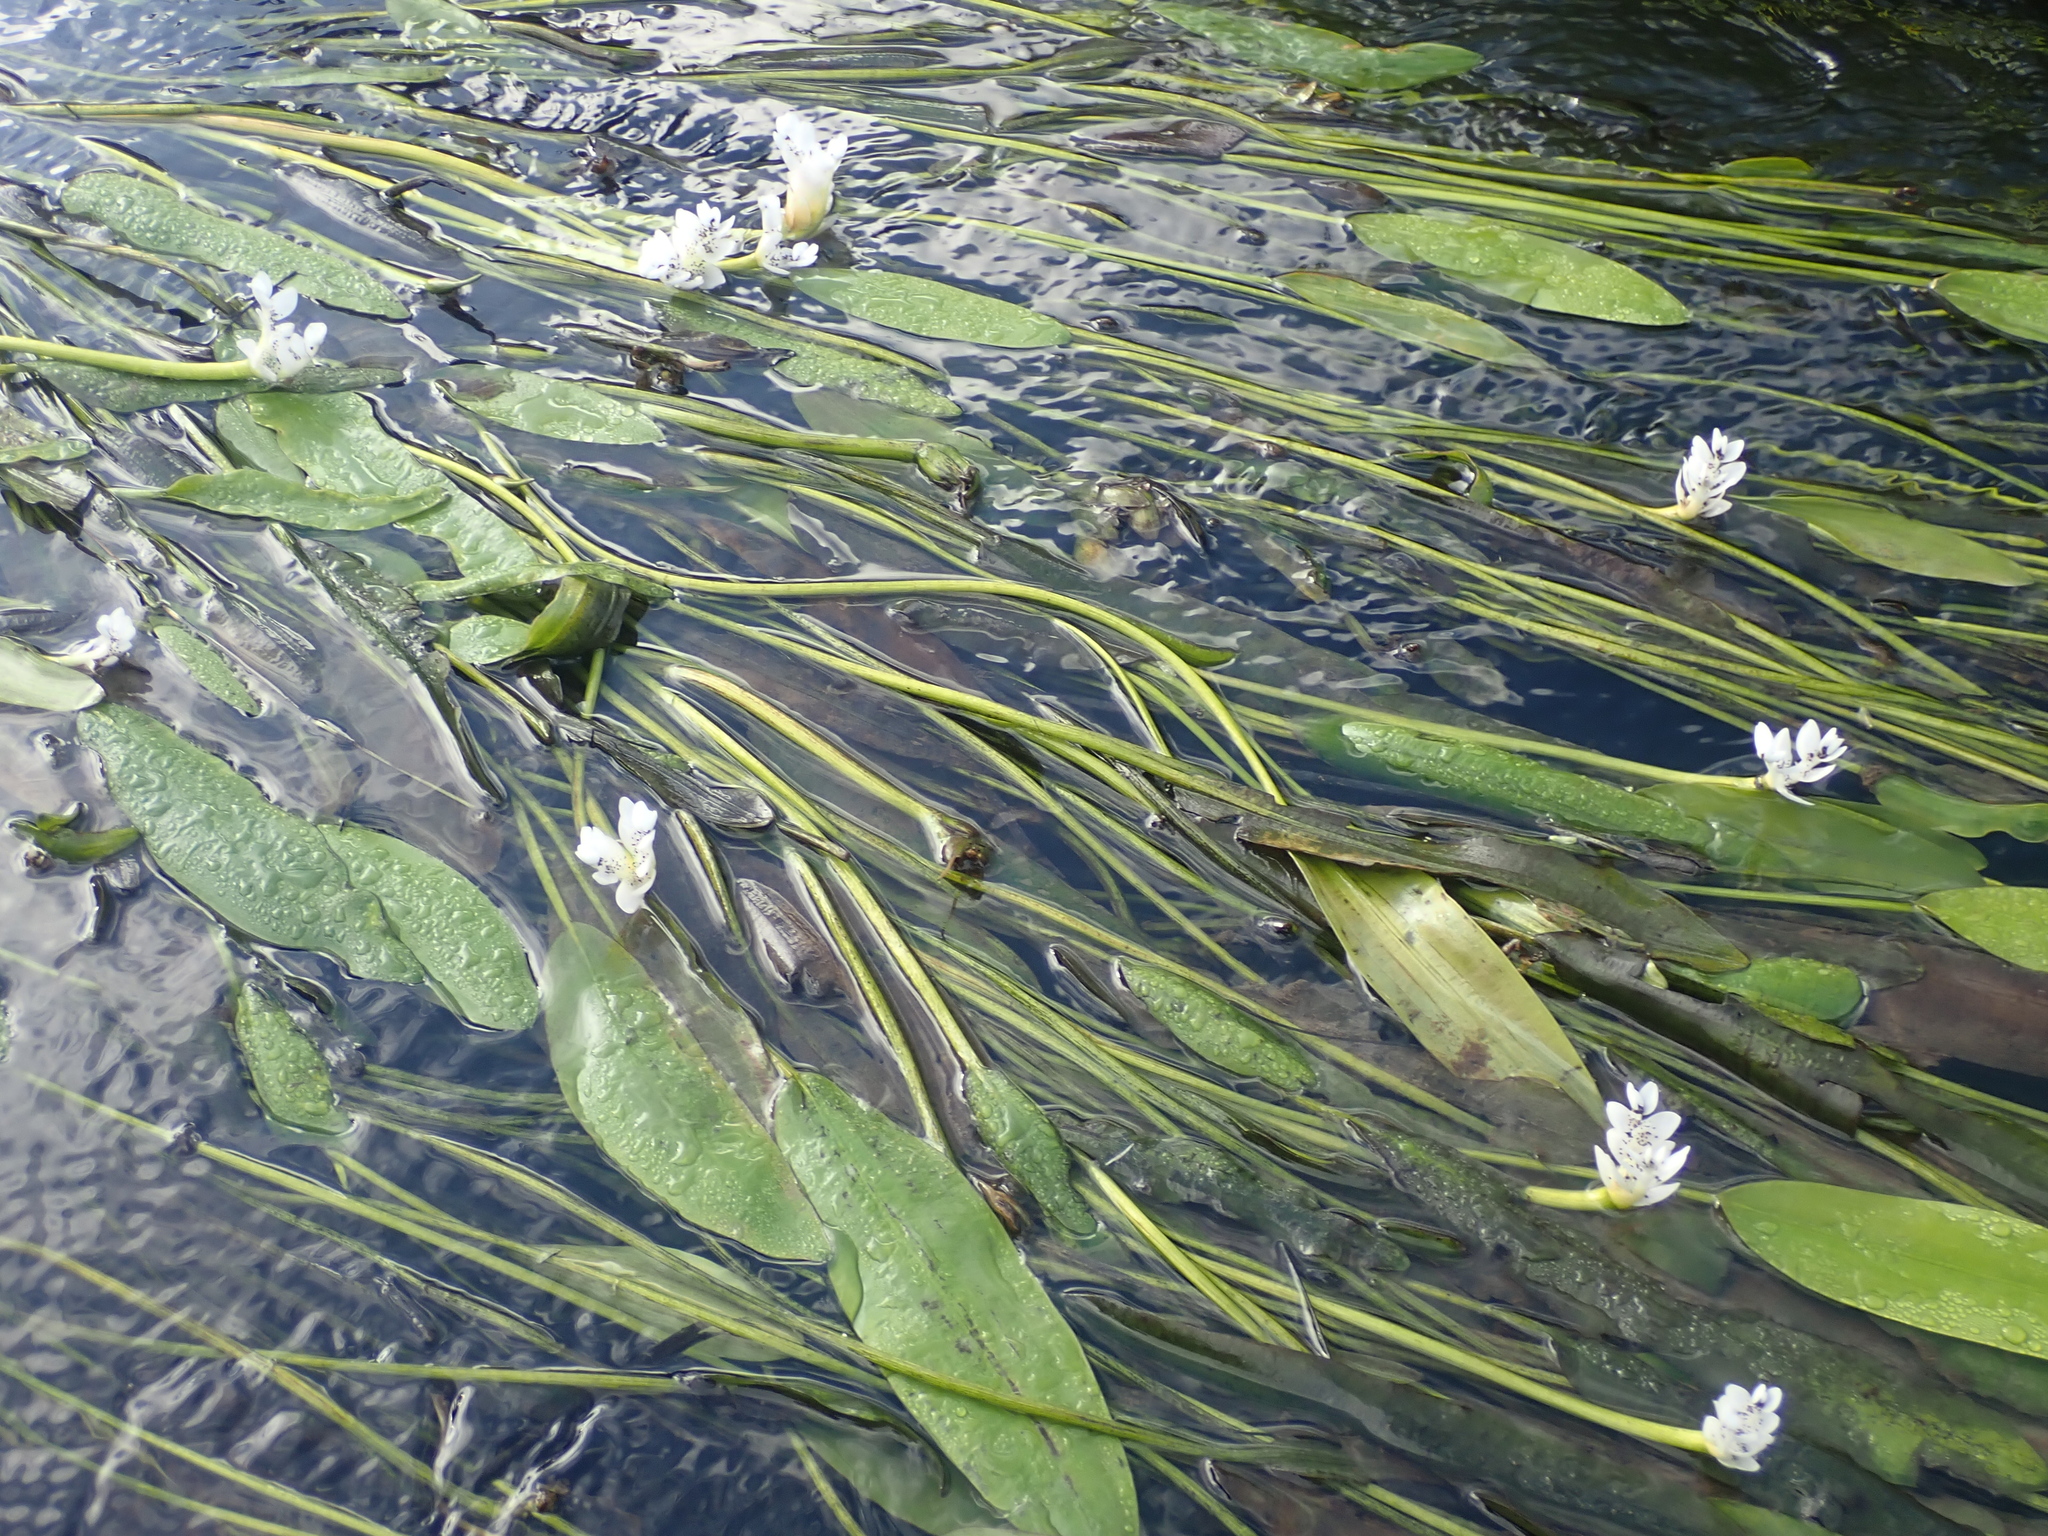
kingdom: Plantae
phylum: Tracheophyta
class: Liliopsida
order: Alismatales
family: Aponogetonaceae
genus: Aponogeton
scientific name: Aponogeton distachyos
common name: Cape-pondweed
